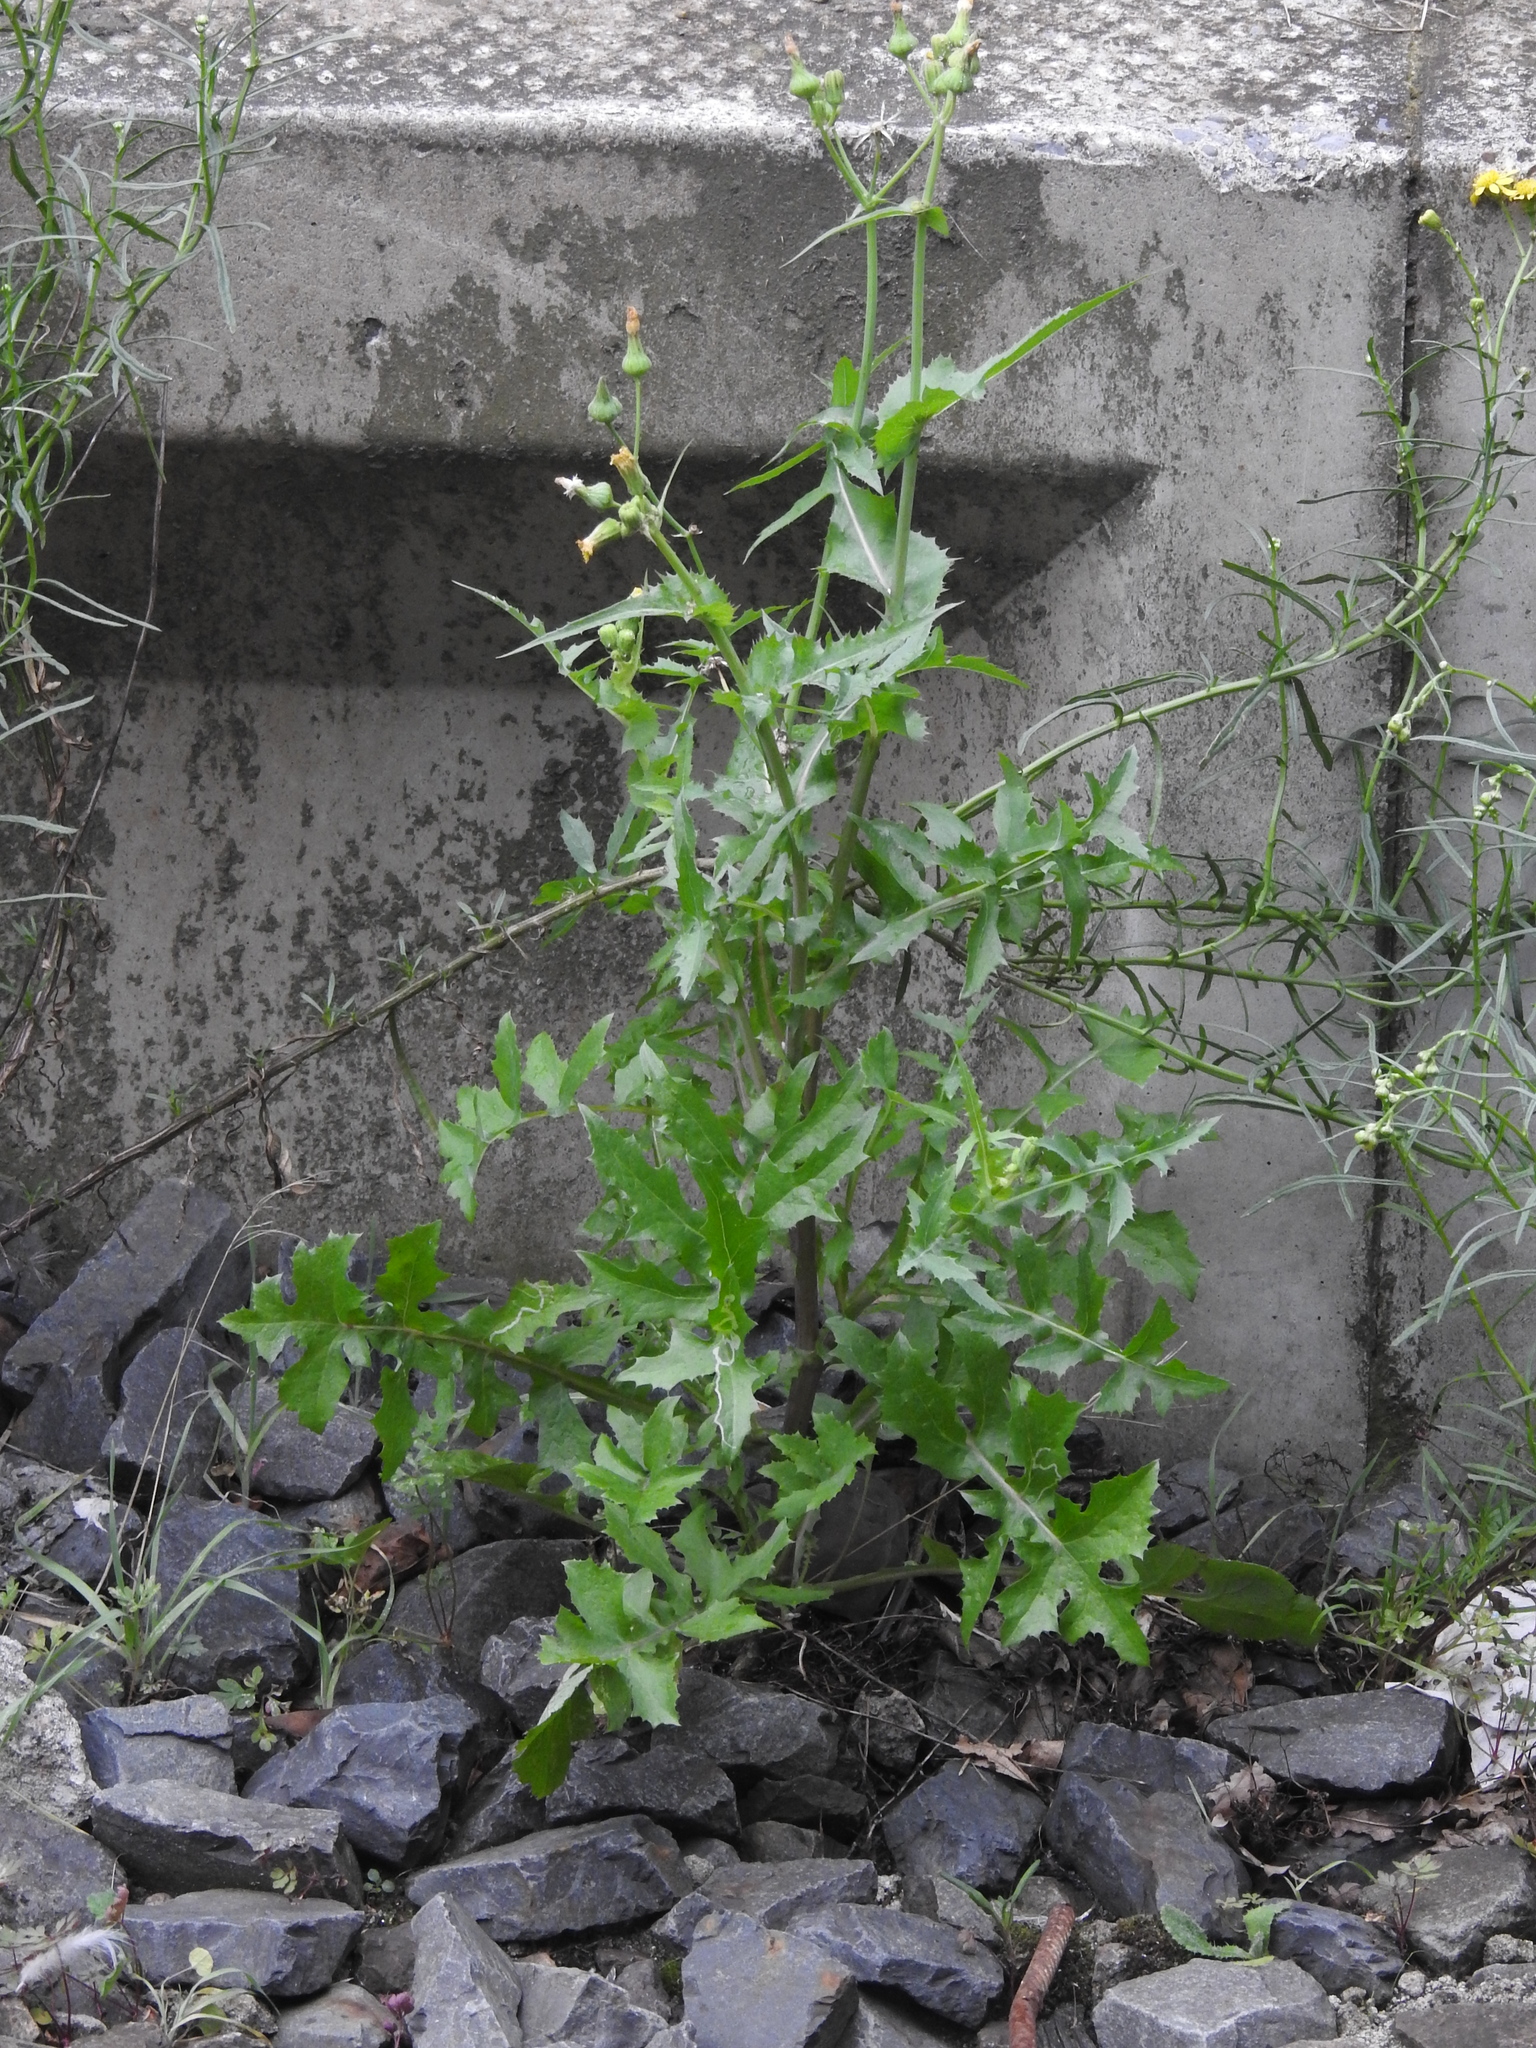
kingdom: Plantae
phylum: Tracheophyta
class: Magnoliopsida
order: Asterales
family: Asteraceae
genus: Sonchus
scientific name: Sonchus oleraceus
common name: Common sowthistle
